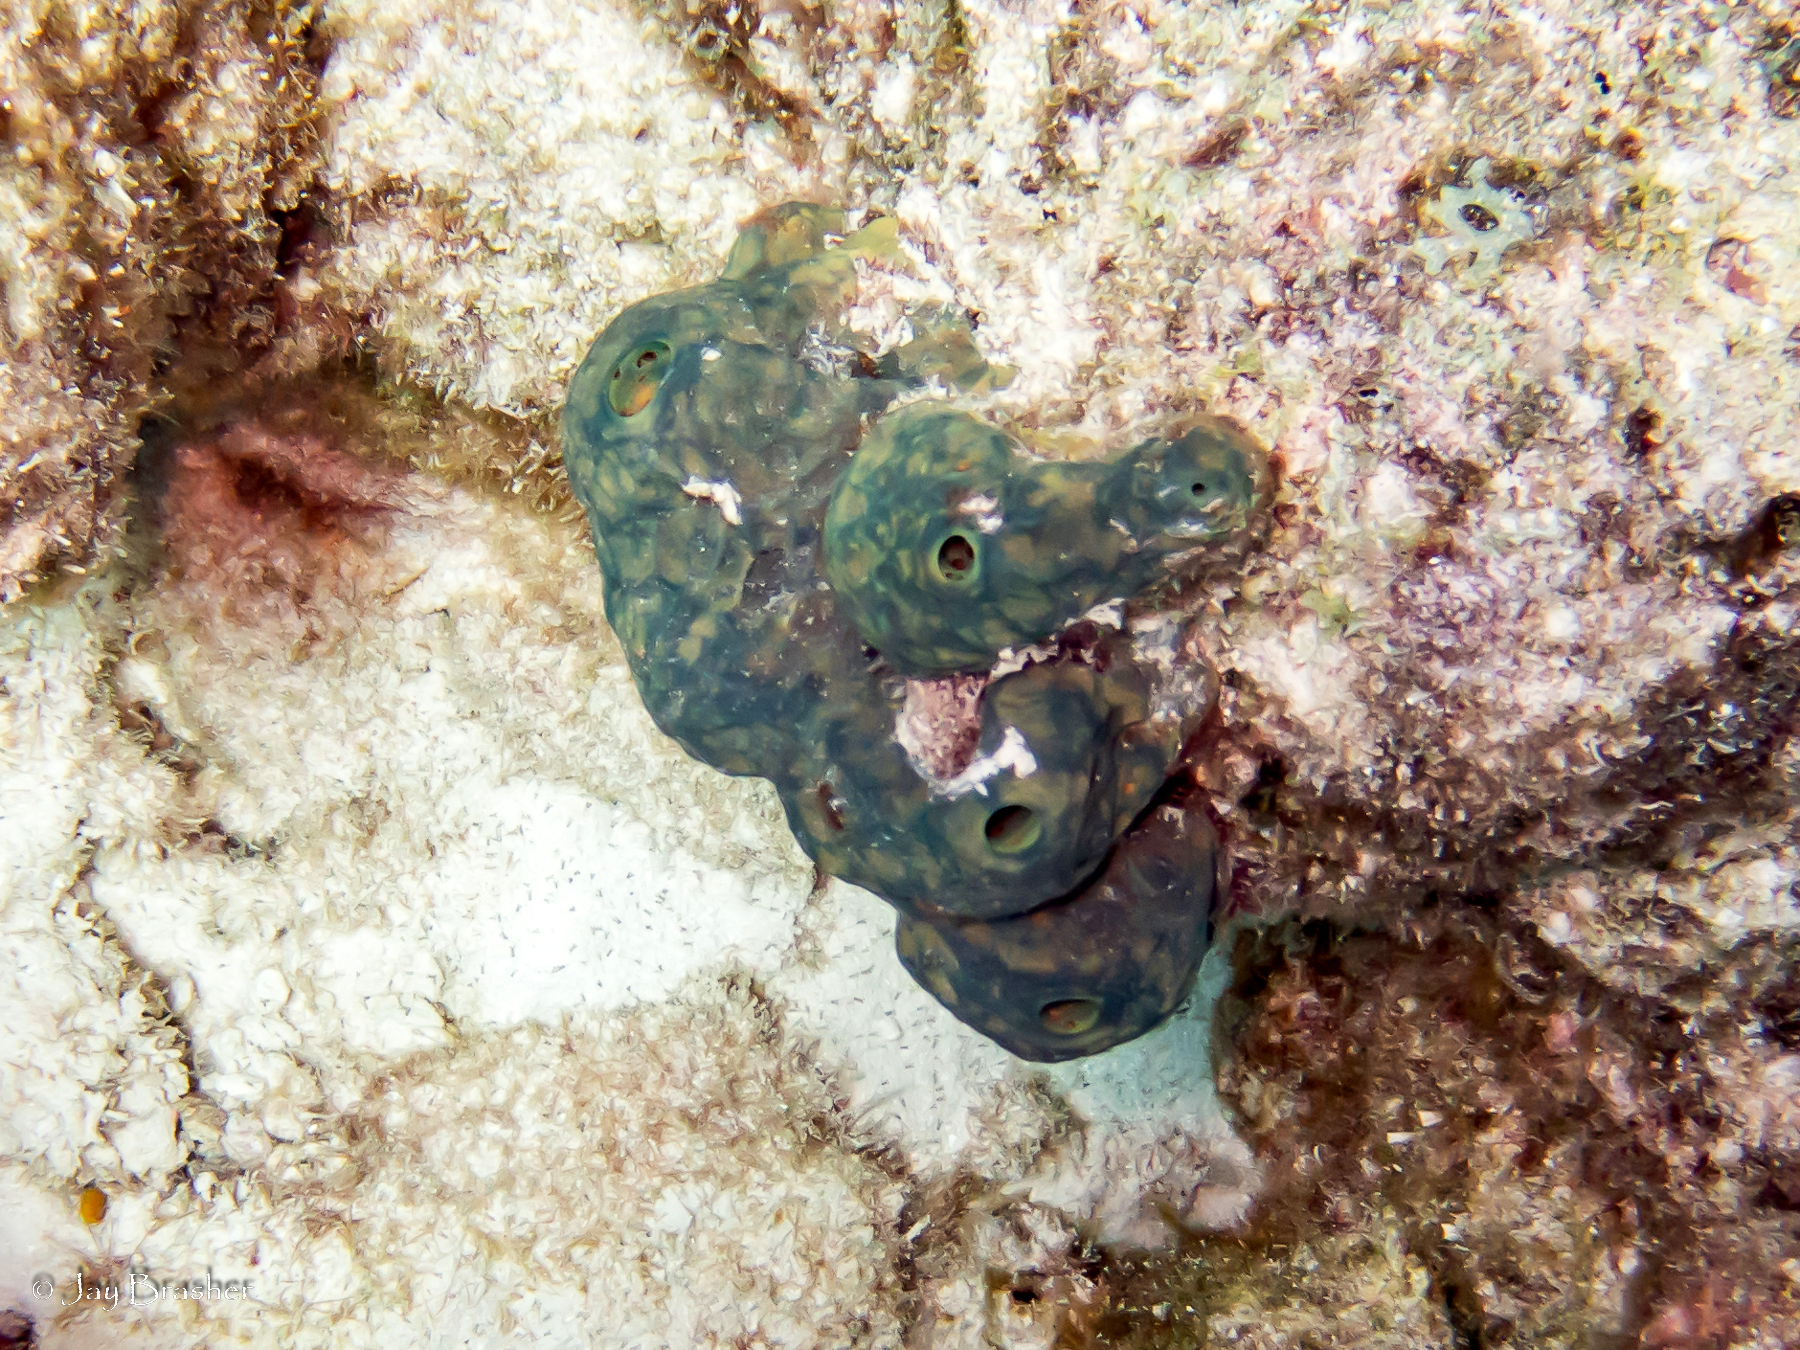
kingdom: Animalia
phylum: Porifera
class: Demospongiae
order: Verongiida
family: Aplysinidae
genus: Verongula
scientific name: Verongula reiswigi
